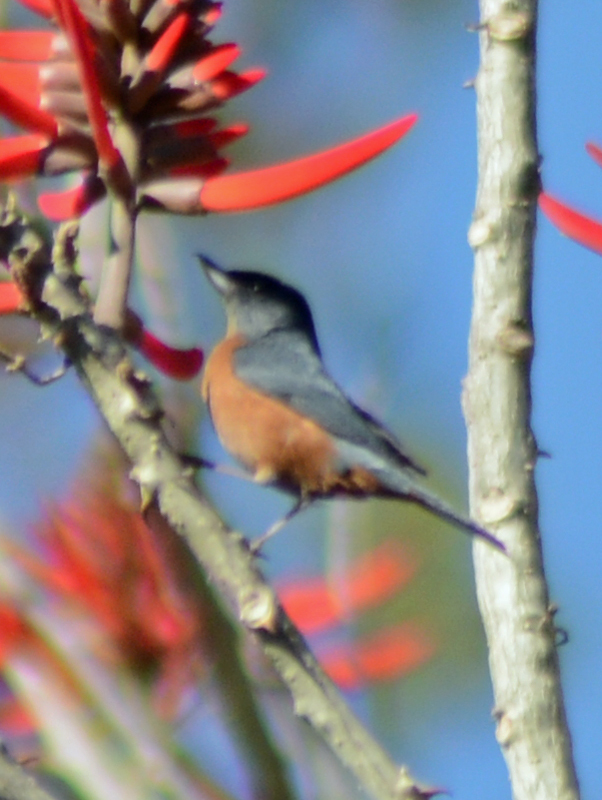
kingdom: Animalia
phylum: Chordata
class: Aves
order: Passeriformes
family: Thraupidae
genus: Diglossa
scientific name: Diglossa baritula
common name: Cinnamon-bellied flowerpiercer
